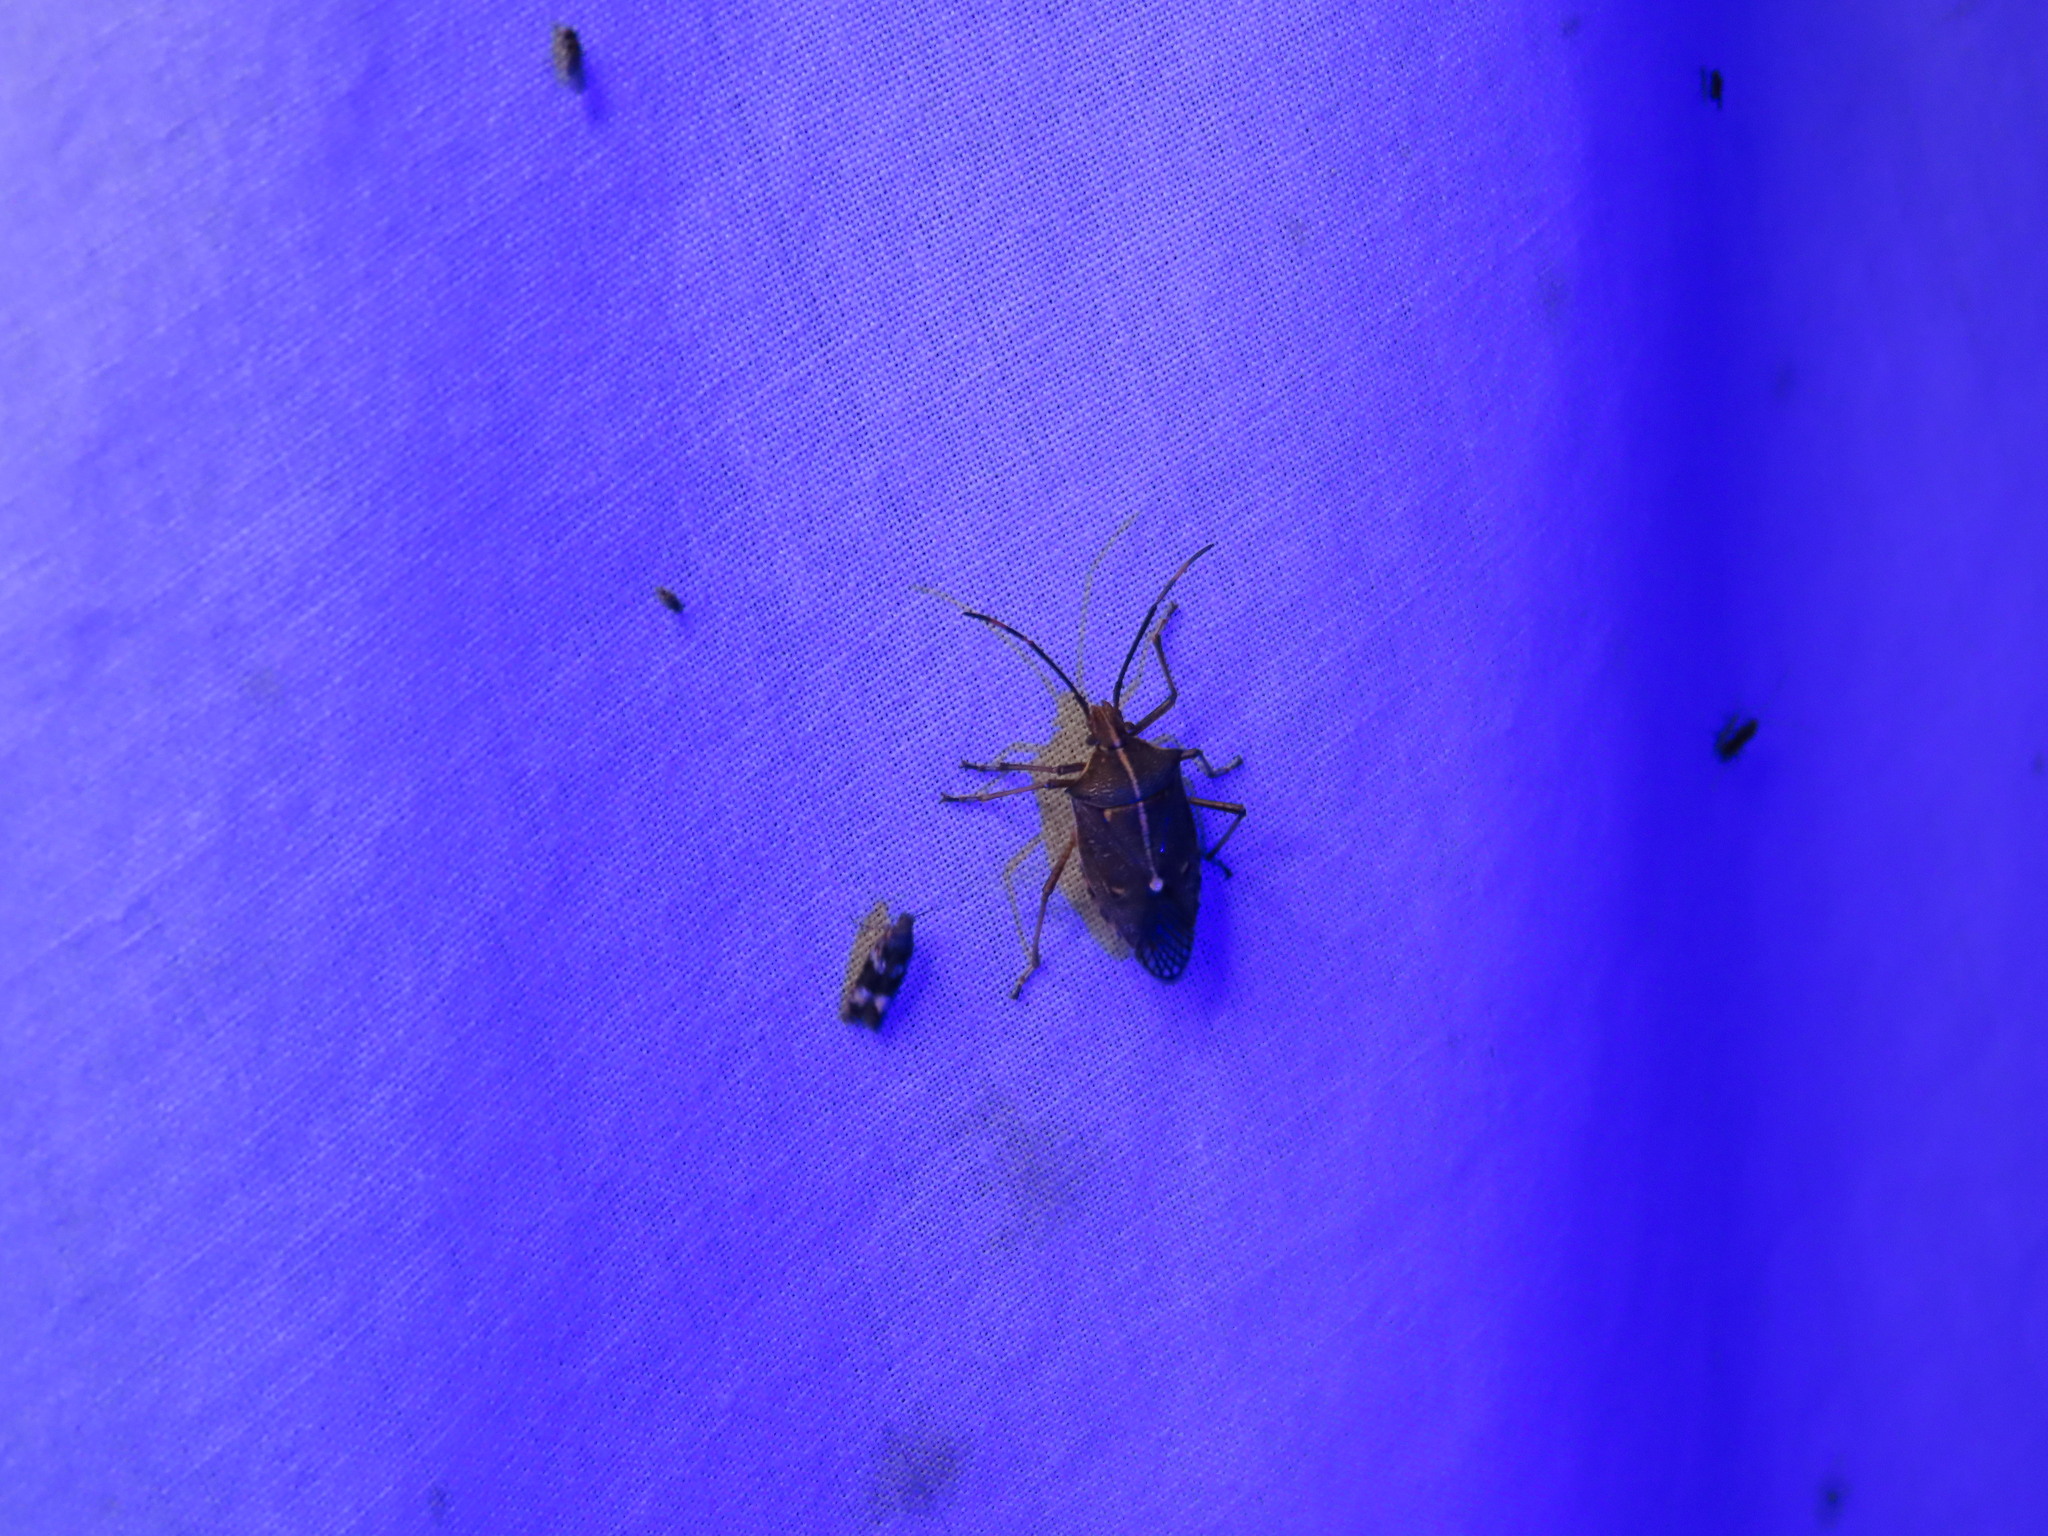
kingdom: Animalia
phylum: Arthropoda
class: Insecta
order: Hemiptera
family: Pentatomidae
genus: Omyta
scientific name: Omyta centrolineata
